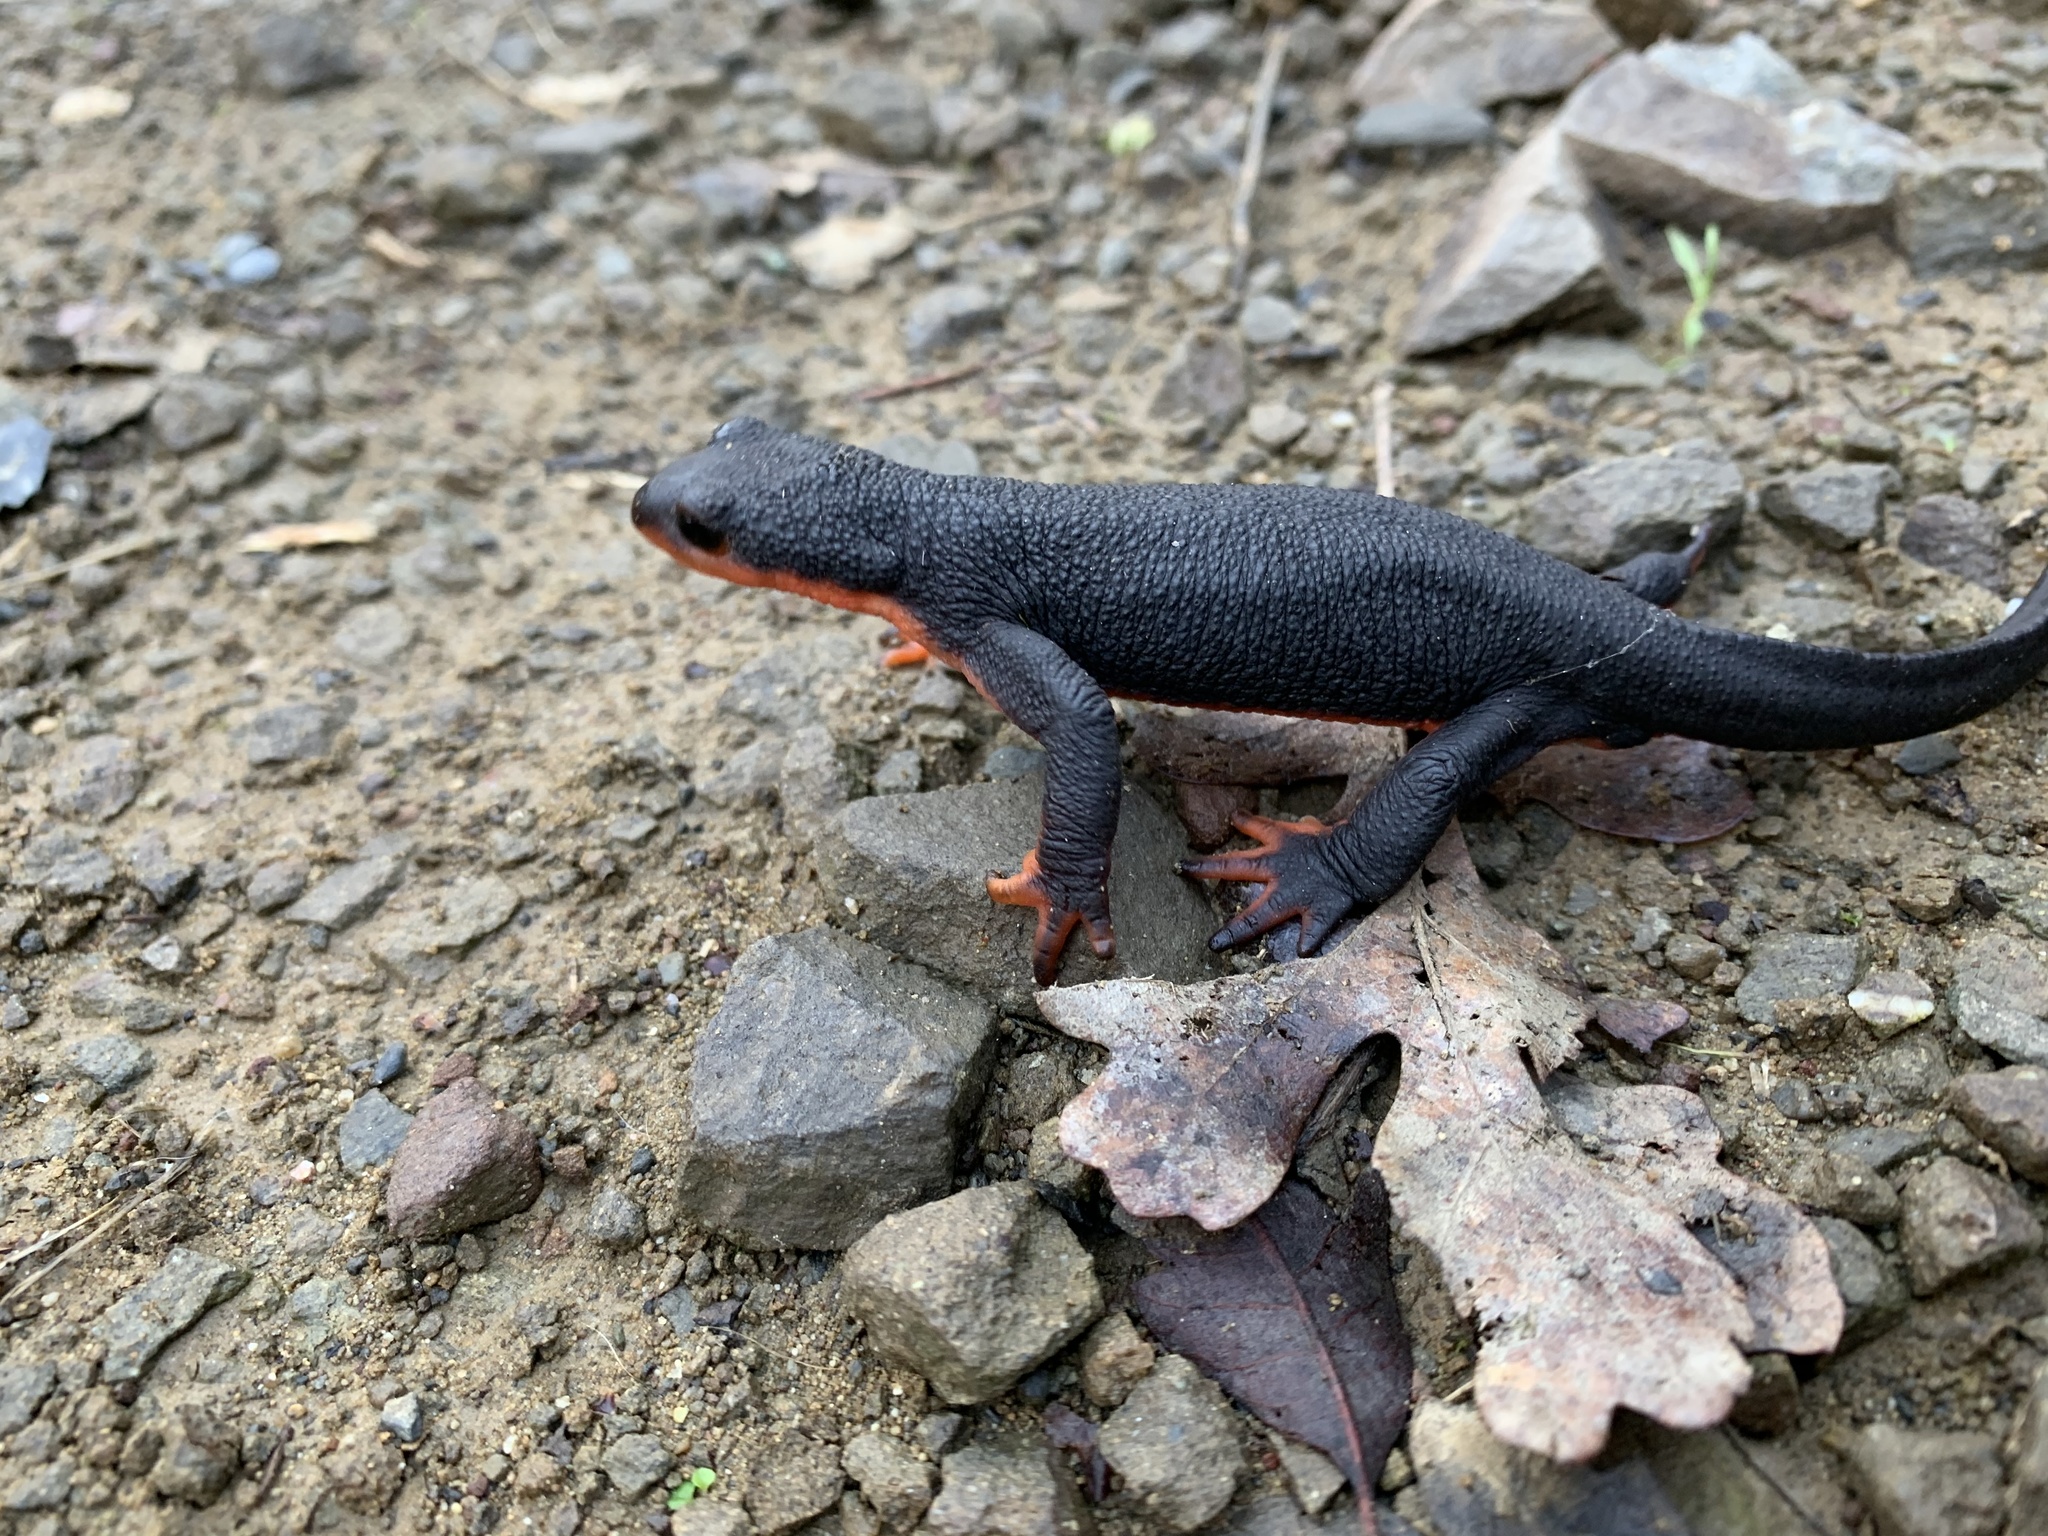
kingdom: Animalia
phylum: Chordata
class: Amphibia
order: Caudata
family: Salamandridae
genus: Taricha
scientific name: Taricha rivularis
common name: Red-bellied newt
